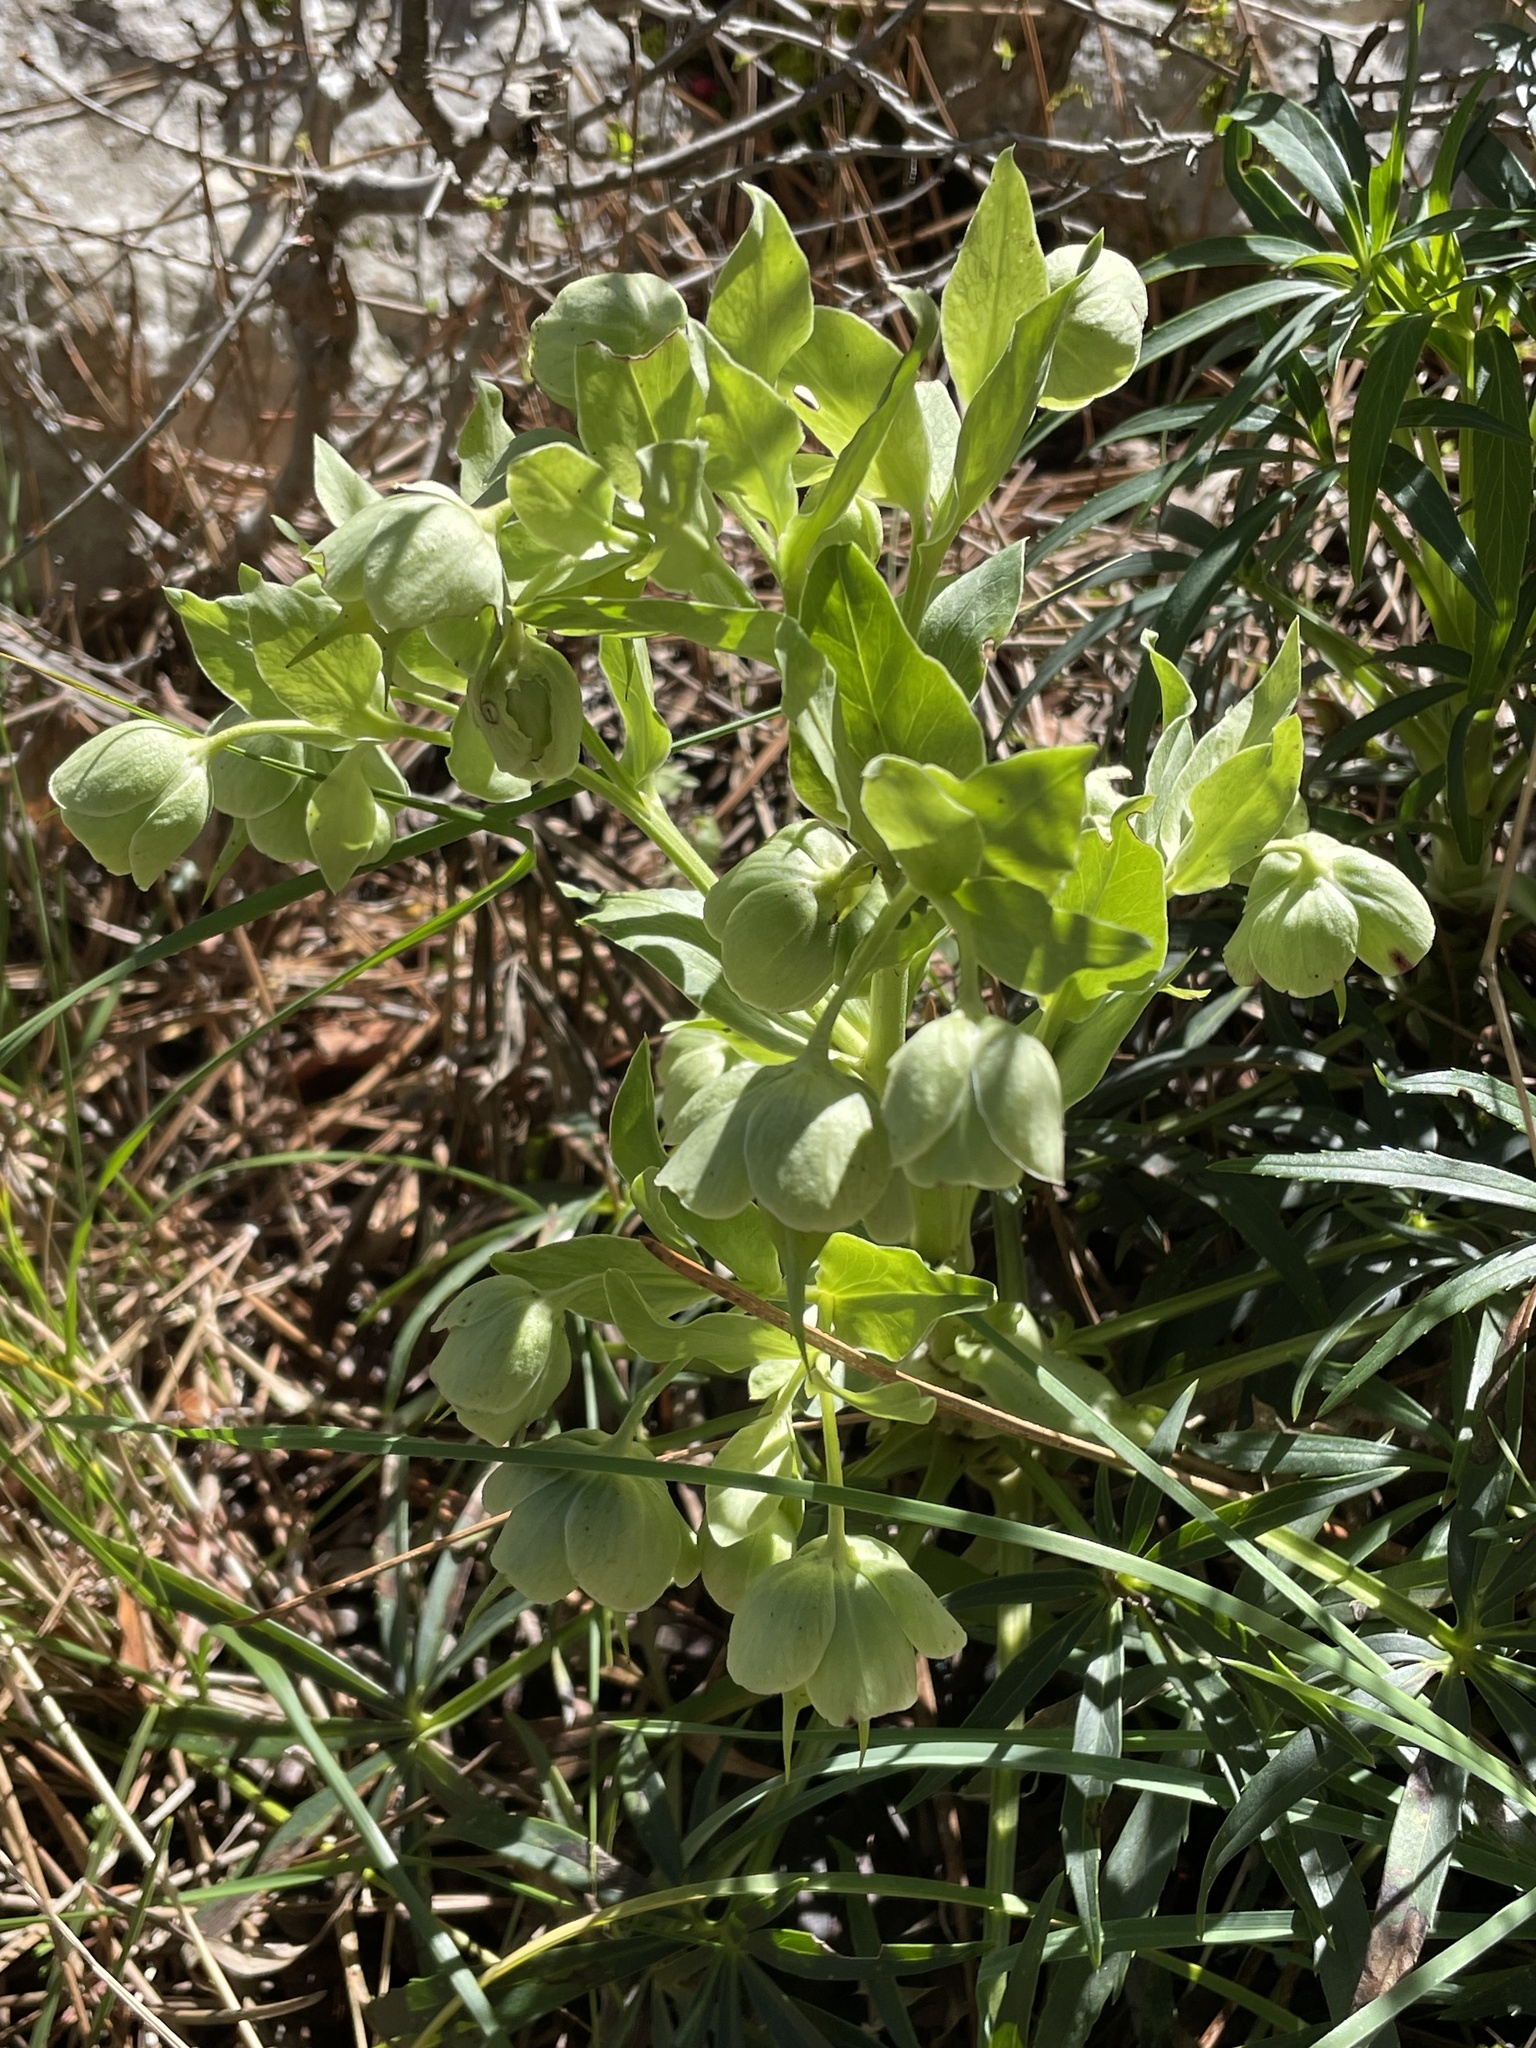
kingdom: Plantae
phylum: Tracheophyta
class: Magnoliopsida
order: Ranunculales
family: Ranunculaceae
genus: Helleborus
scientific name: Helleborus foetidus
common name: Stinking hellebore
